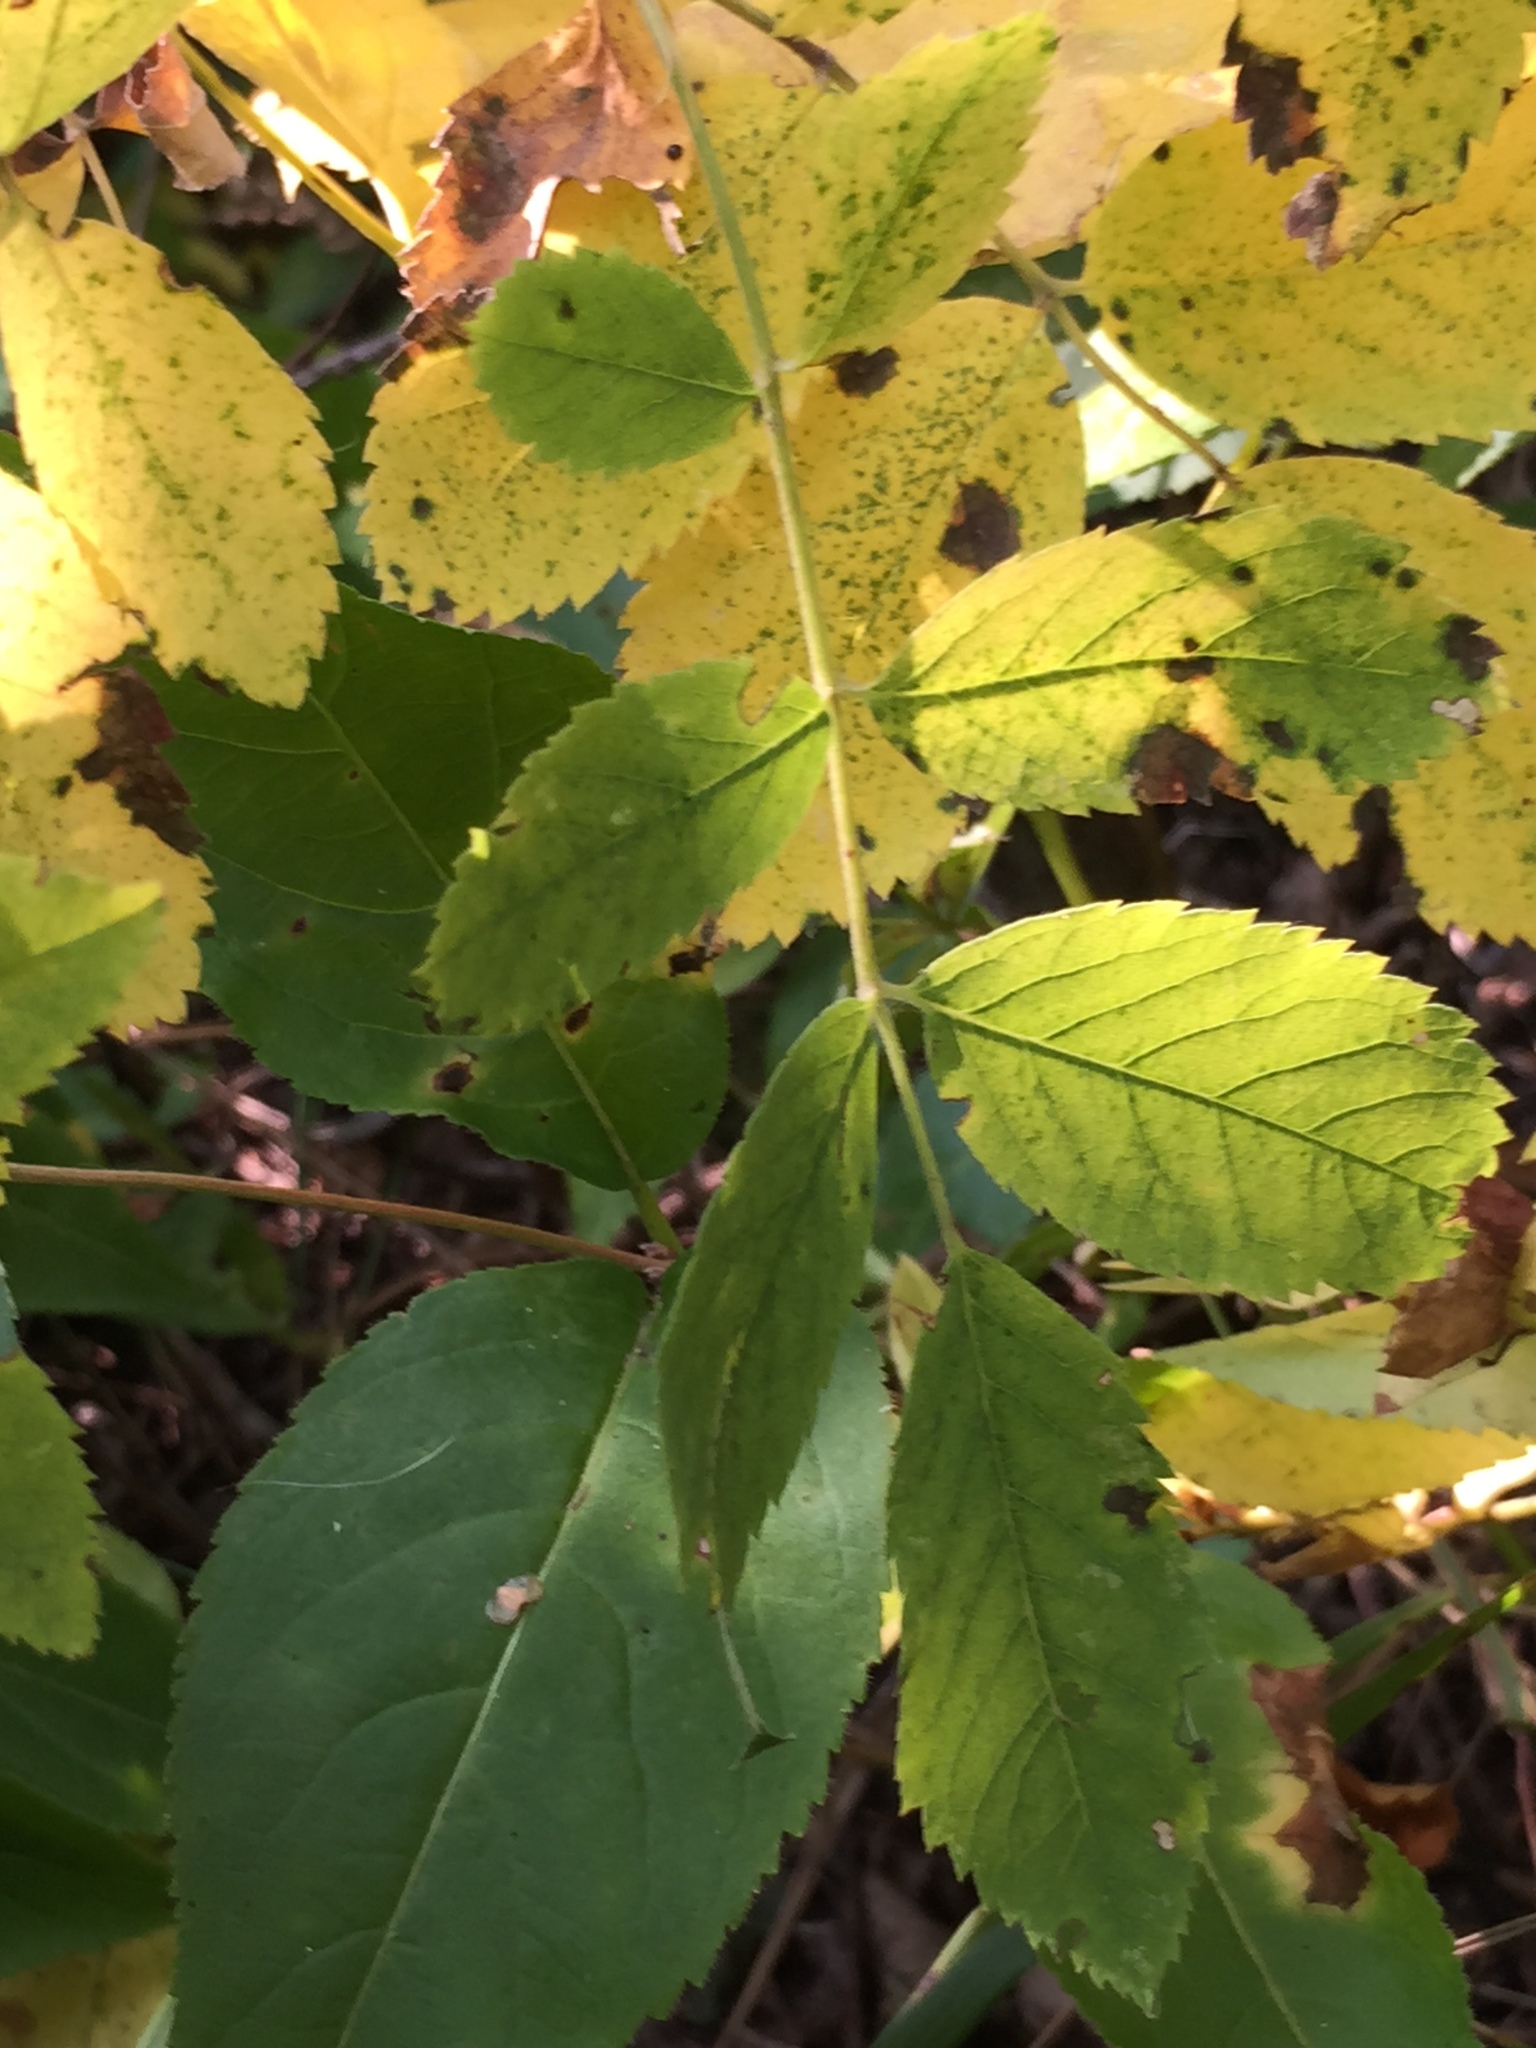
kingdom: Plantae
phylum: Tracheophyta
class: Magnoliopsida
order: Rosales
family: Rosaceae
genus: Rosa
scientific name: Rosa acicularis
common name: Prickly rose
